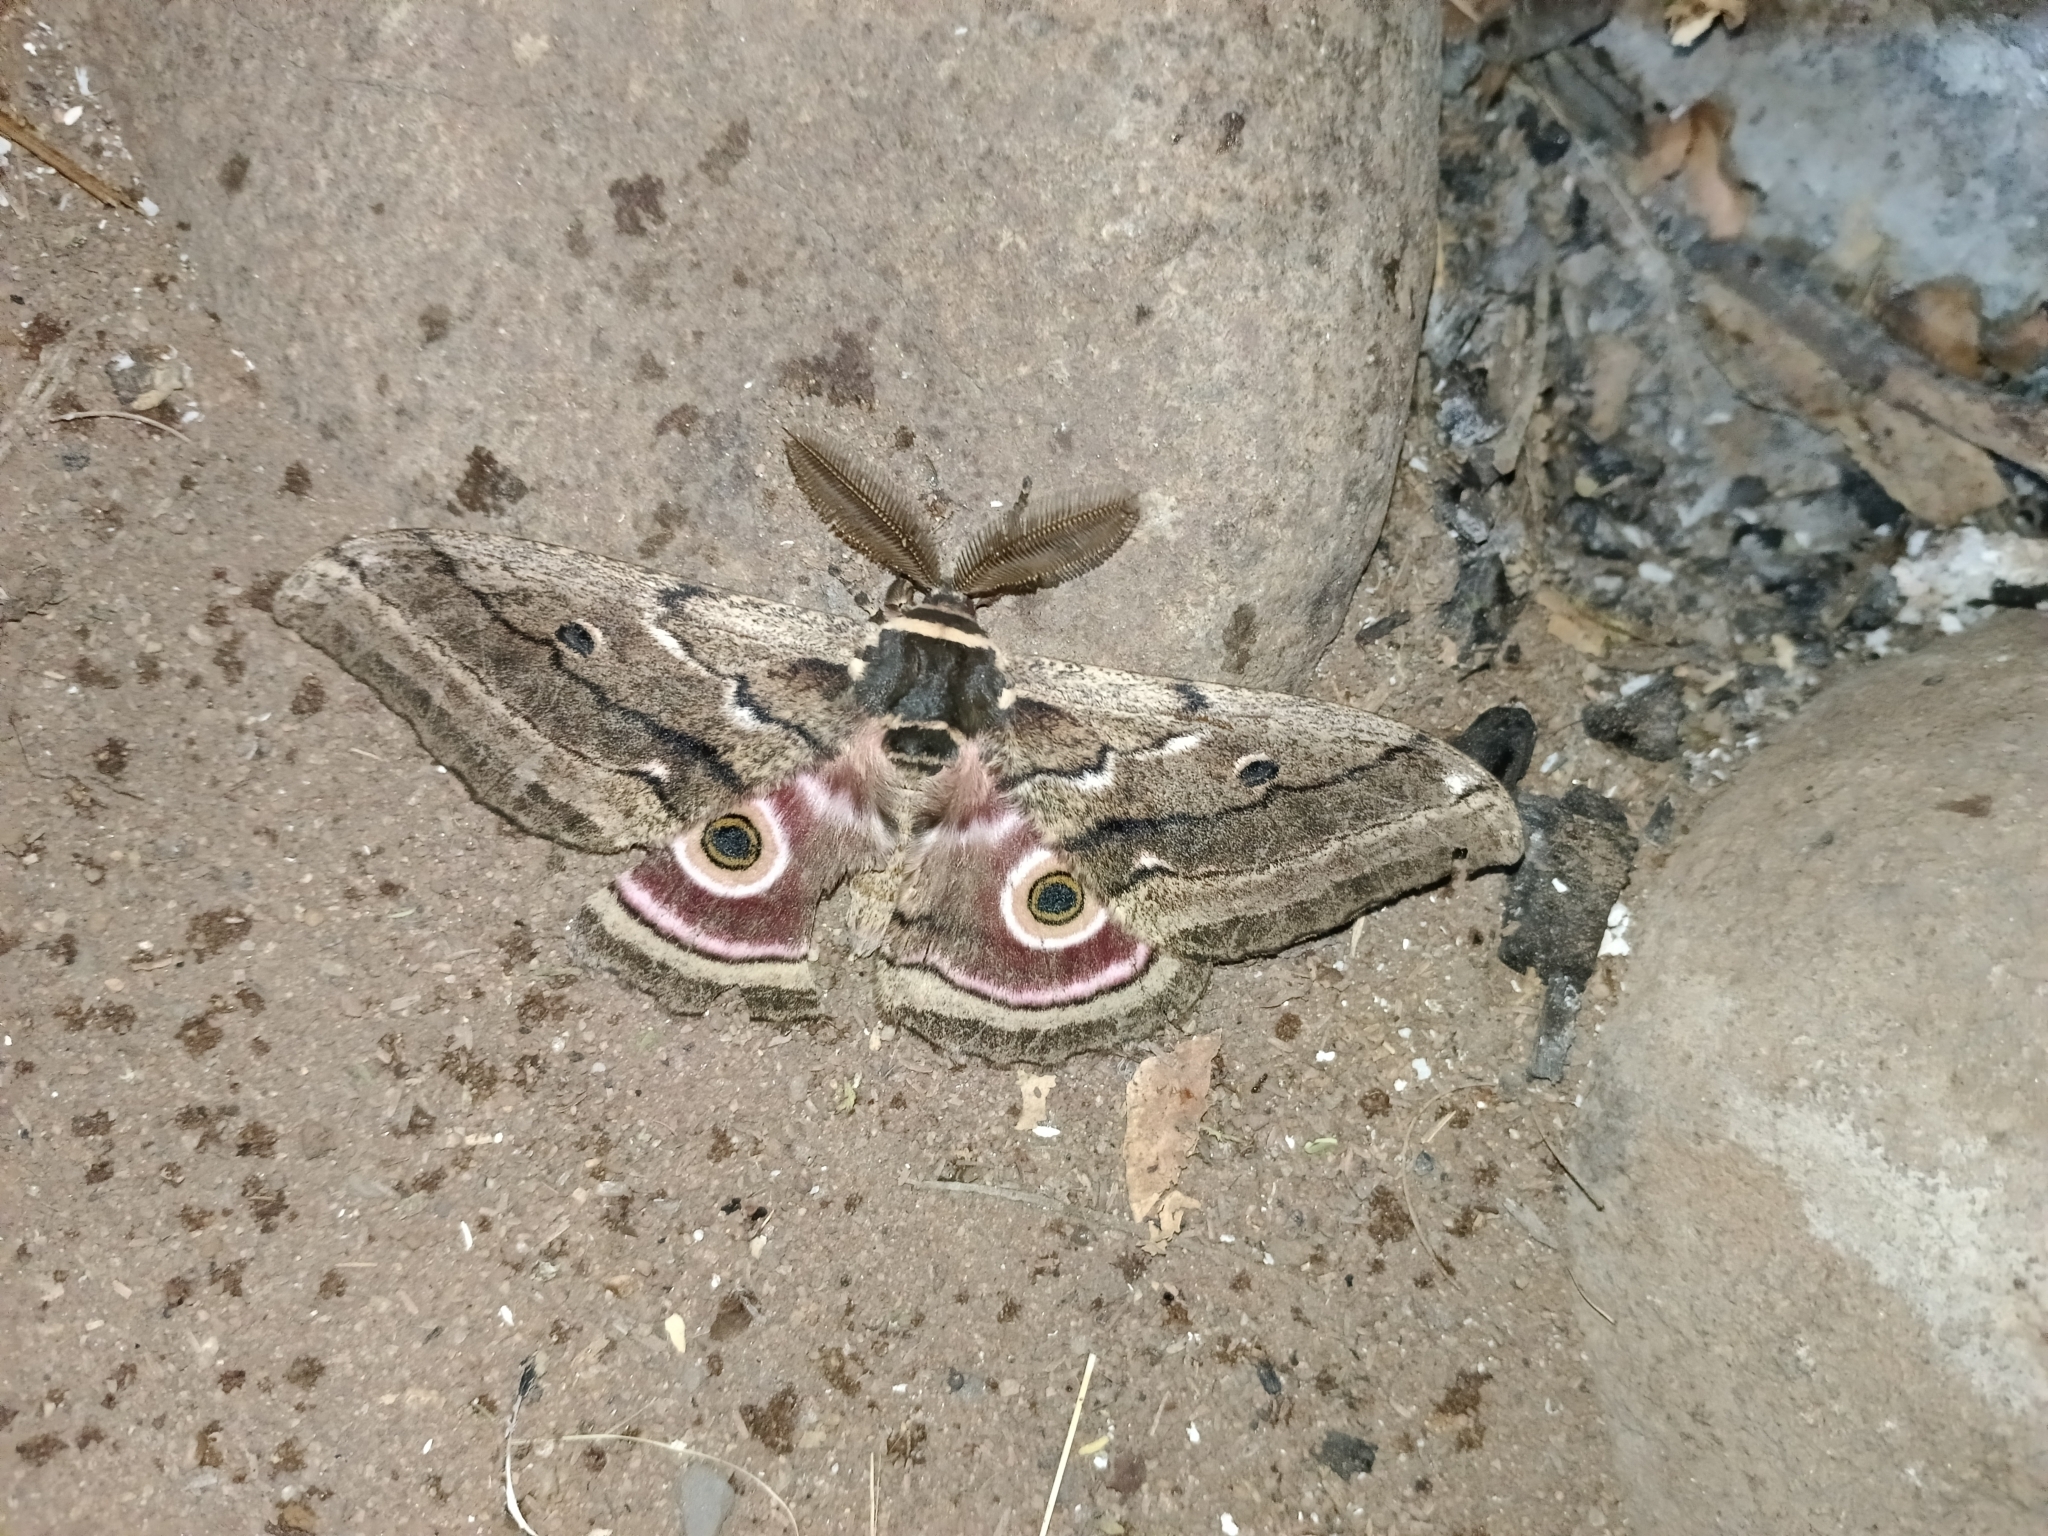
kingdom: Animalia
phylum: Arthropoda
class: Insecta
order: Lepidoptera
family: Saturniidae
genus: Gynanisa
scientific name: Gynanisa maja
